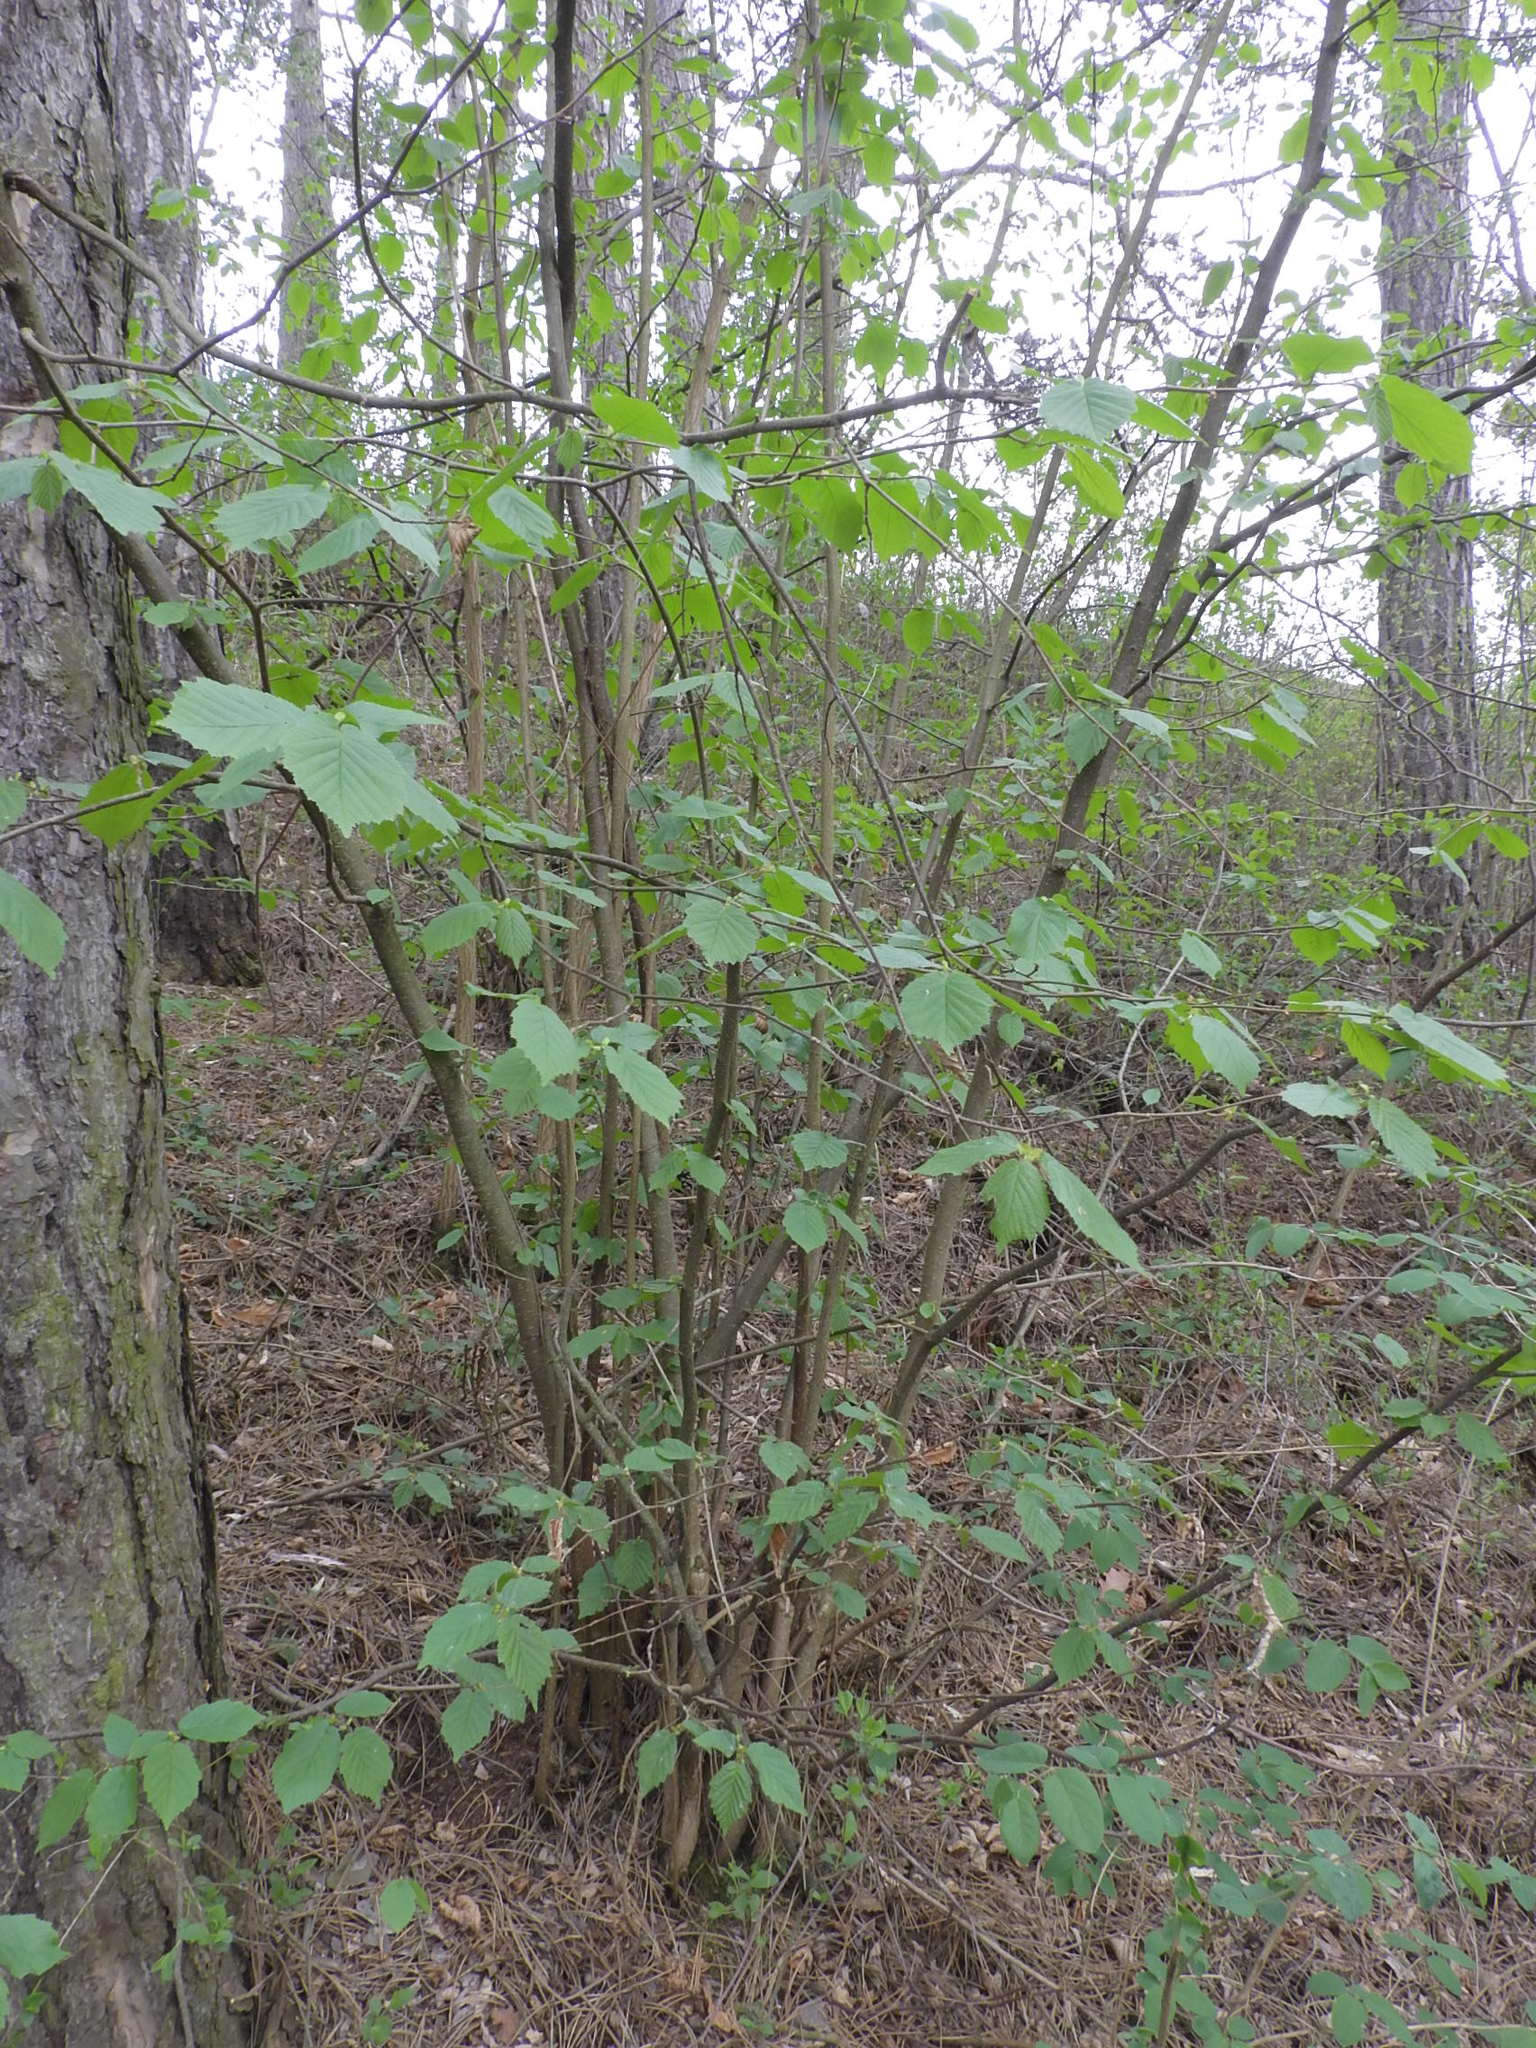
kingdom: Plantae
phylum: Tracheophyta
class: Magnoliopsida
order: Fagales
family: Betulaceae
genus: Corylus
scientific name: Corylus avellana
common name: European hazel
